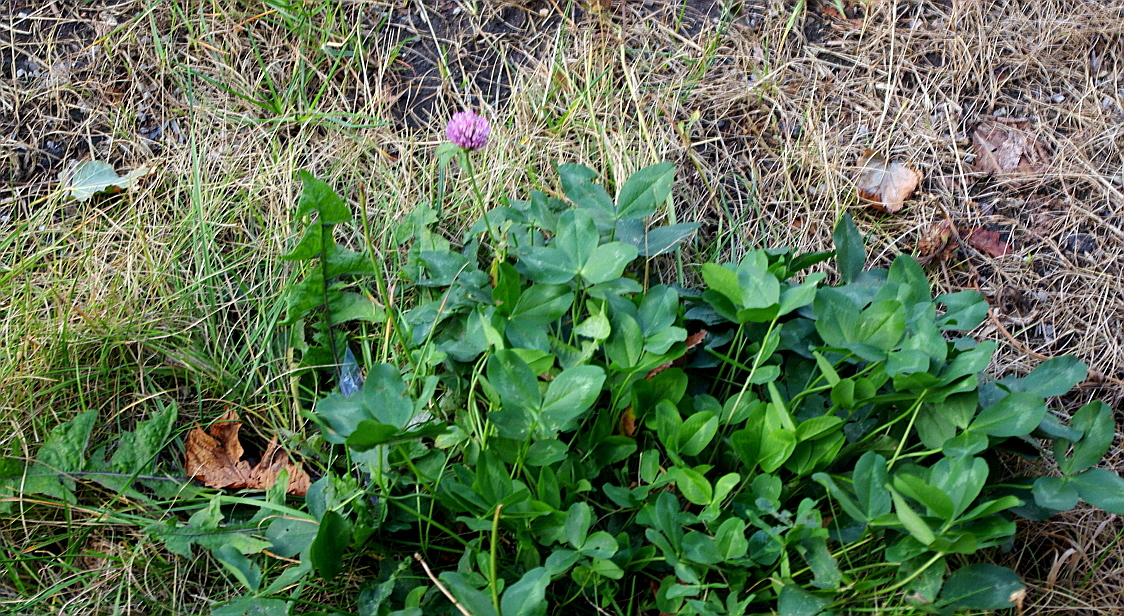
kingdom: Plantae
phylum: Tracheophyta
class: Magnoliopsida
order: Fabales
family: Fabaceae
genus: Trifolium
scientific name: Trifolium pratense
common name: Red clover
